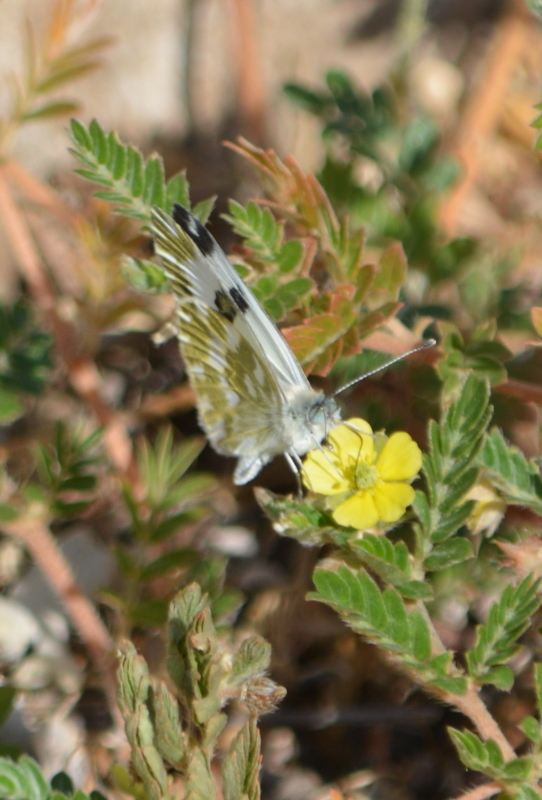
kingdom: Animalia
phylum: Arthropoda
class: Insecta
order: Lepidoptera
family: Pieridae
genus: Pontia
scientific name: Pontia edusa
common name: Eastern bath white
